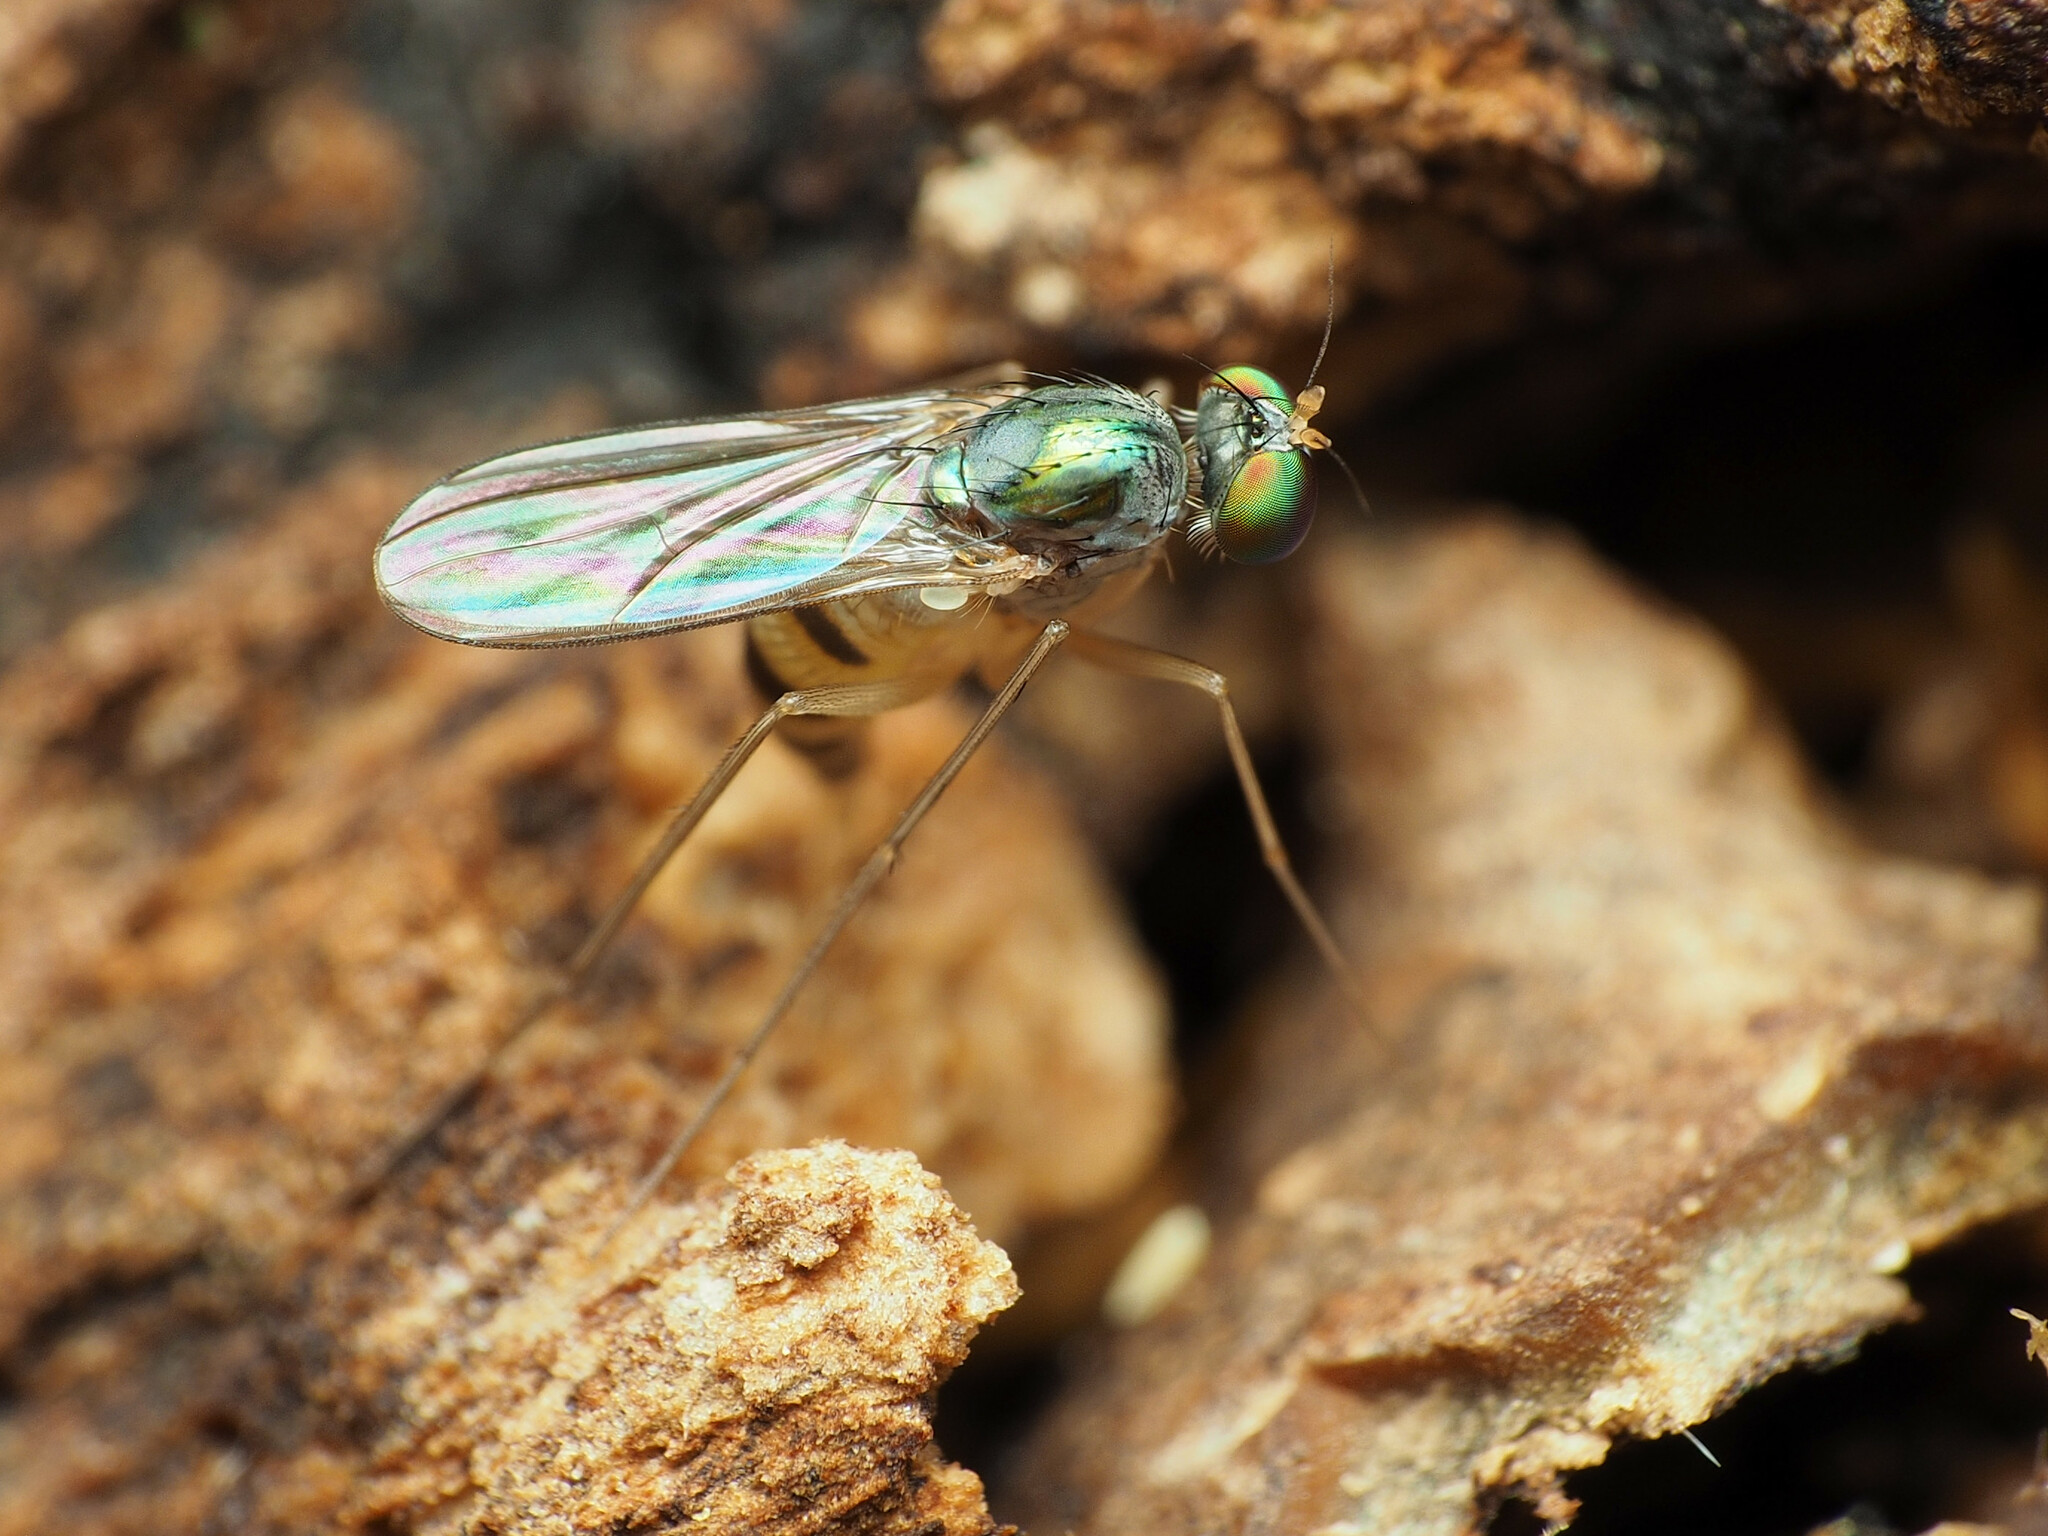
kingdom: Animalia
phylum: Arthropoda
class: Insecta
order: Diptera
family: Dolichopodidae
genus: Neurigona
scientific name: Neurigona deformis
